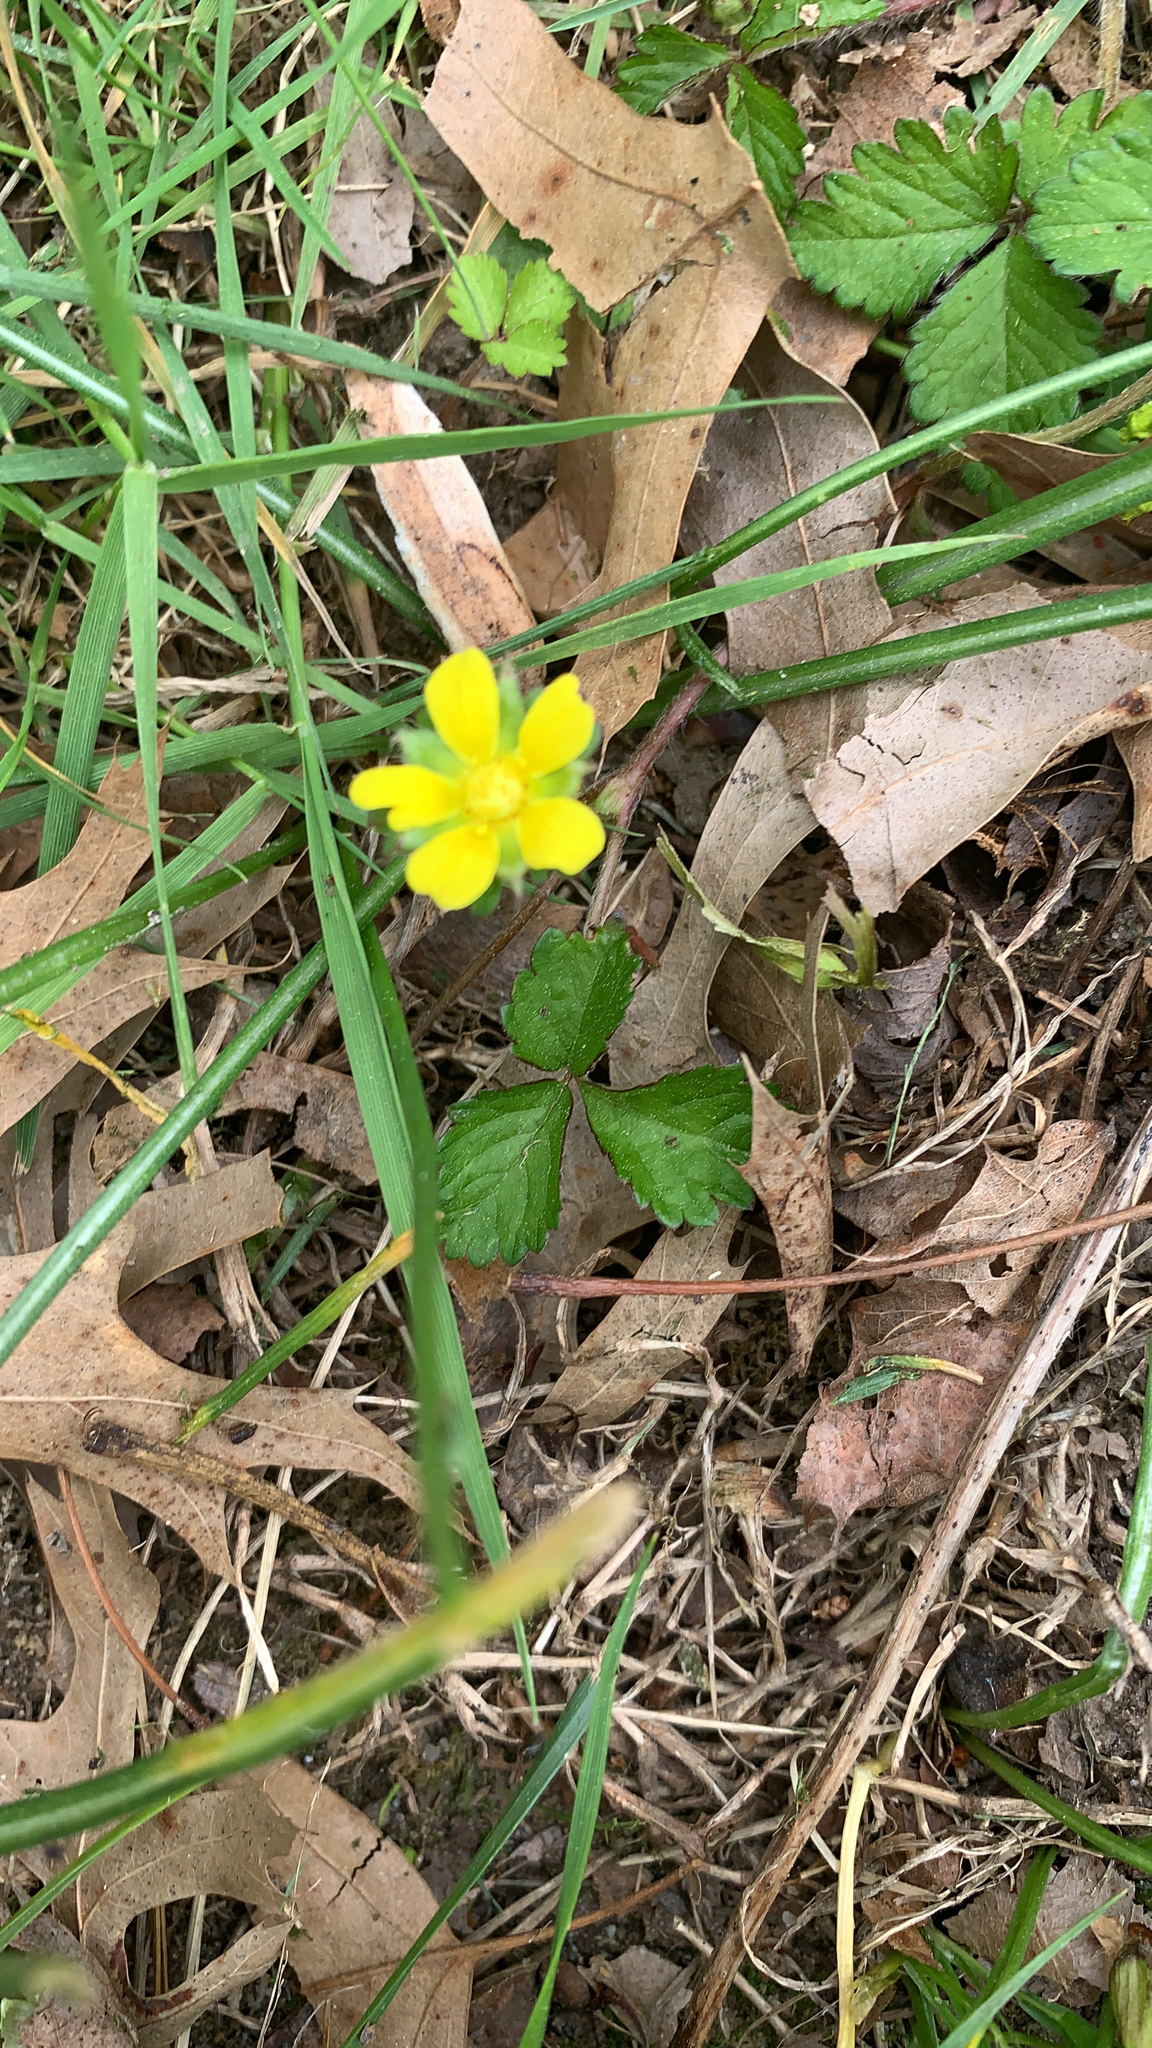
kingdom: Plantae
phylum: Tracheophyta
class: Magnoliopsida
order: Rosales
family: Rosaceae
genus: Potentilla
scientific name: Potentilla indica
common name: Yellow-flowered strawberry
